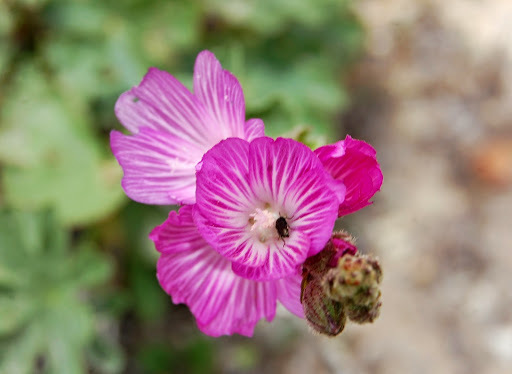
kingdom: Plantae
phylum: Tracheophyta
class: Magnoliopsida
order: Malvales
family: Malvaceae
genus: Sidalcea
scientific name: Sidalcea malviflora
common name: Greek mallow
